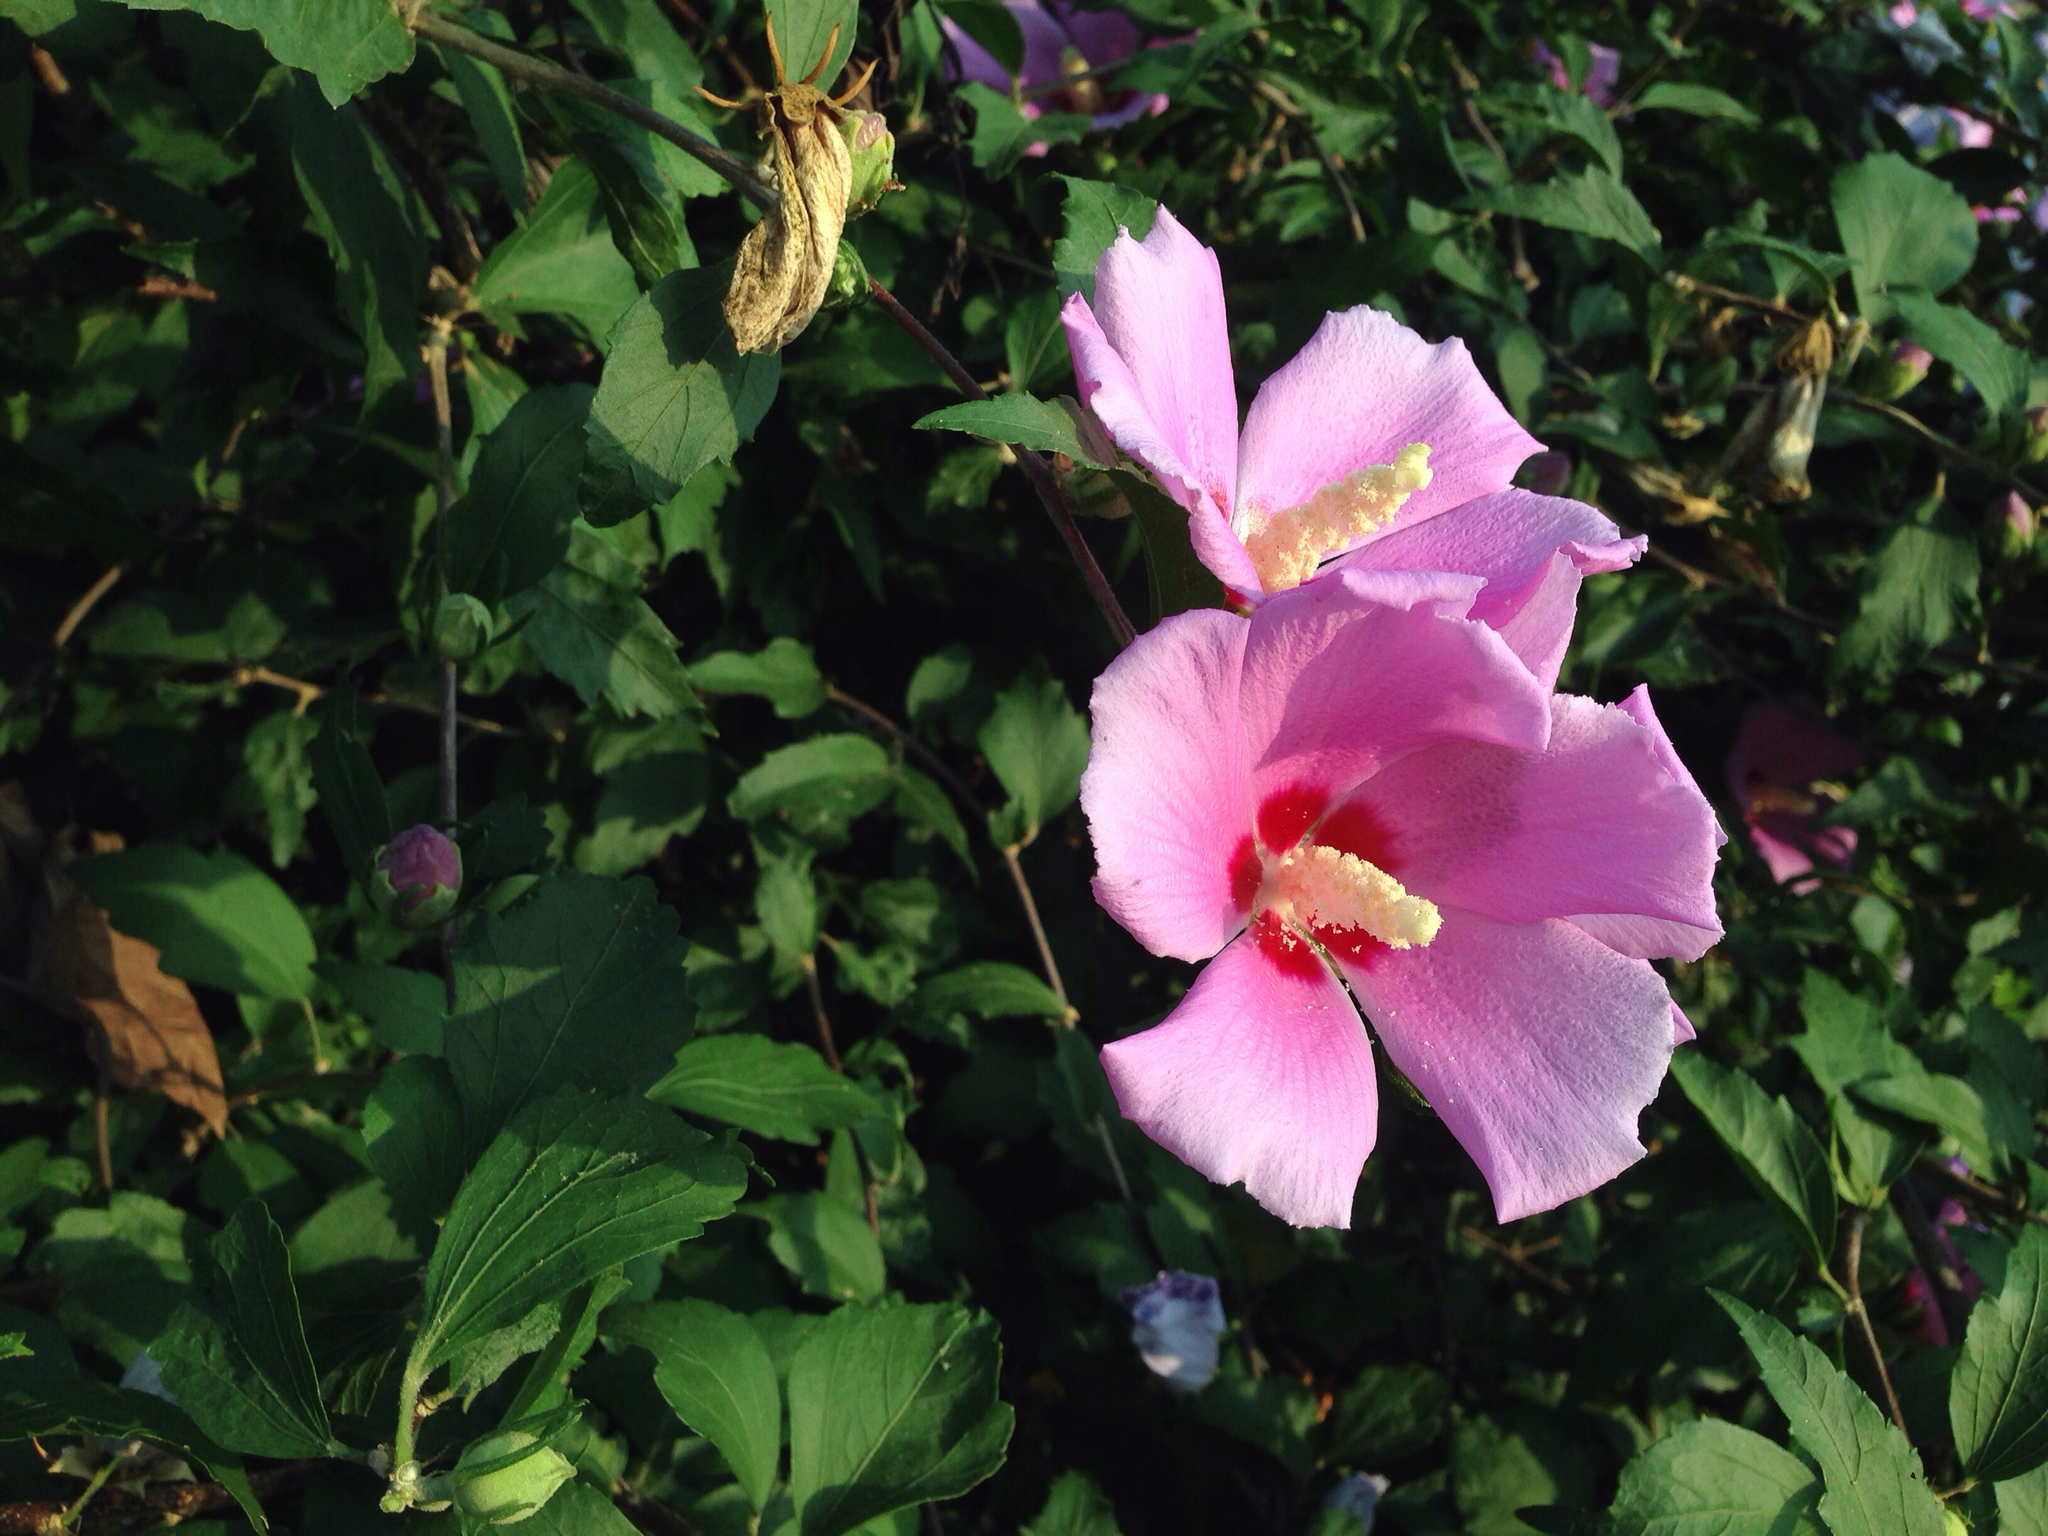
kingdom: Plantae
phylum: Tracheophyta
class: Magnoliopsida
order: Malvales
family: Malvaceae
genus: Hibiscus
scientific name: Hibiscus syriacus
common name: Syrian ketmia
